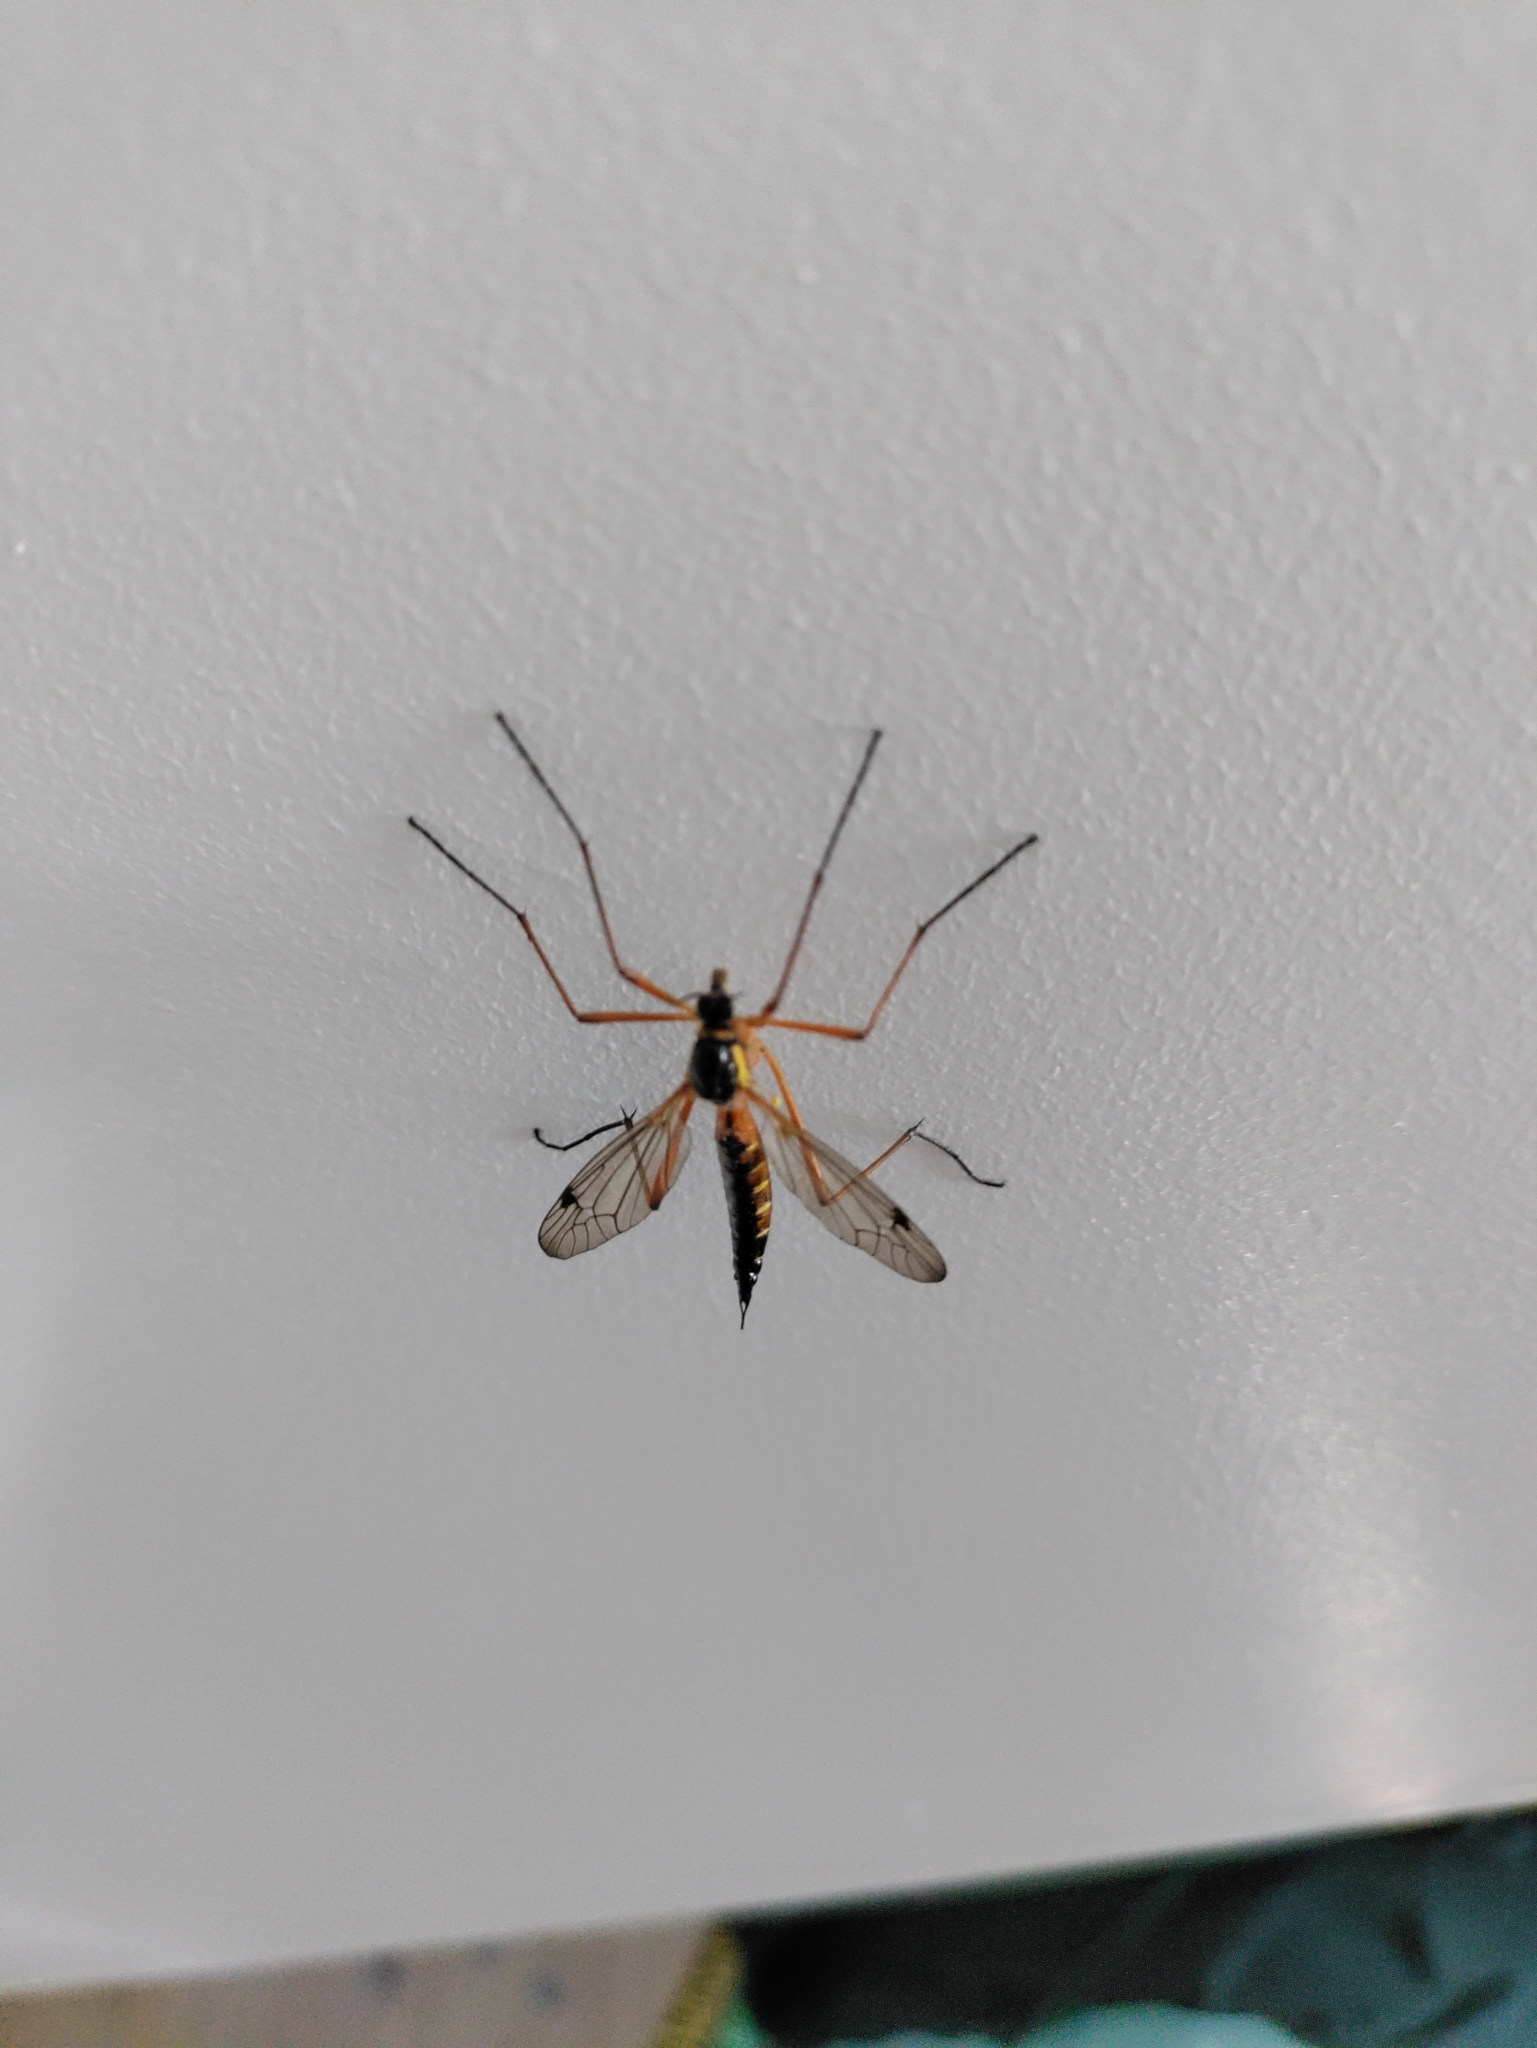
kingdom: Animalia
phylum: Arthropoda
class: Insecta
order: Diptera
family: Tipulidae
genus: Ctenophora
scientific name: Ctenophora pectinicornis
